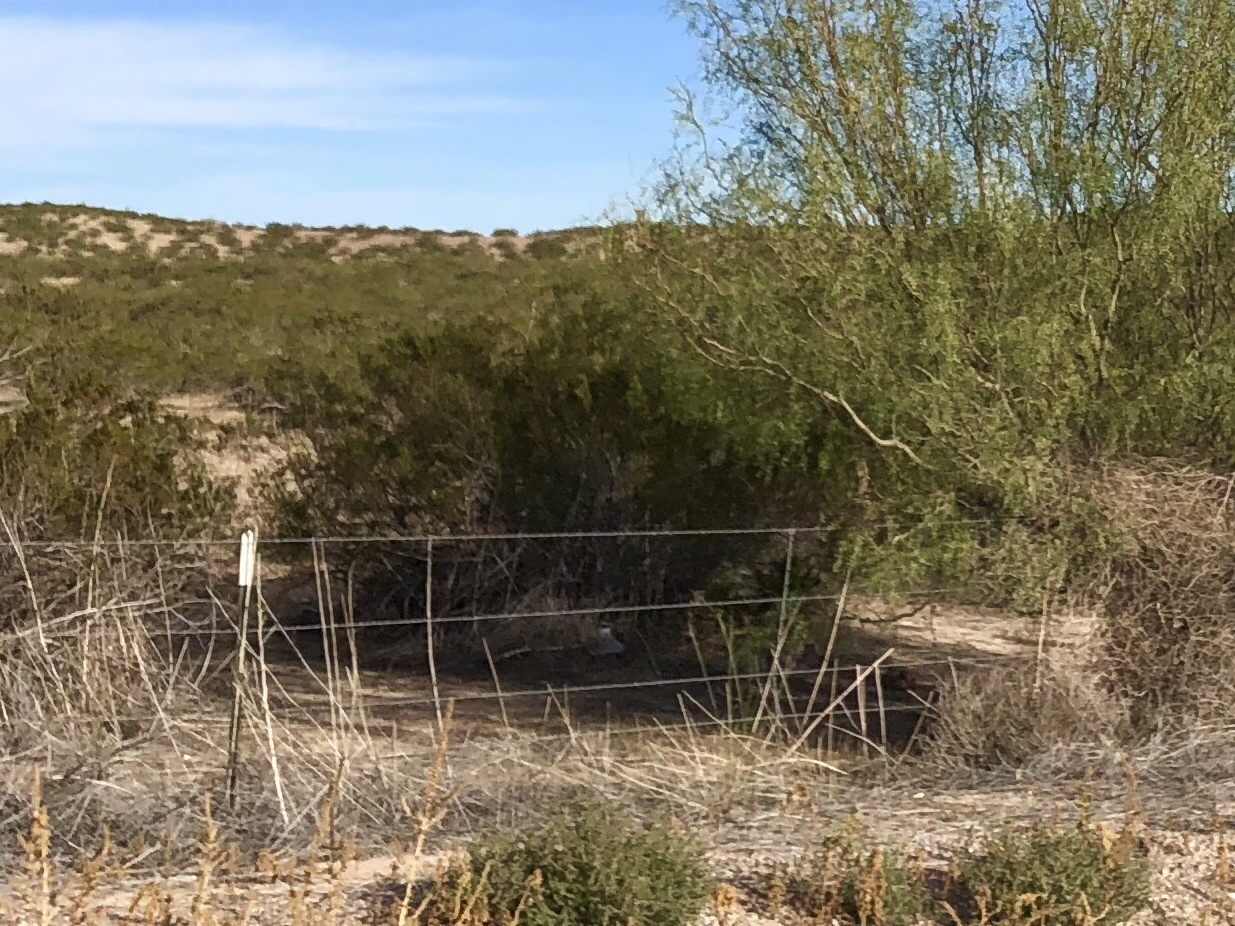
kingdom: Plantae
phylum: Tracheophyta
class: Magnoliopsida
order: Zygophyllales
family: Zygophyllaceae
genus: Larrea
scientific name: Larrea tridentata
